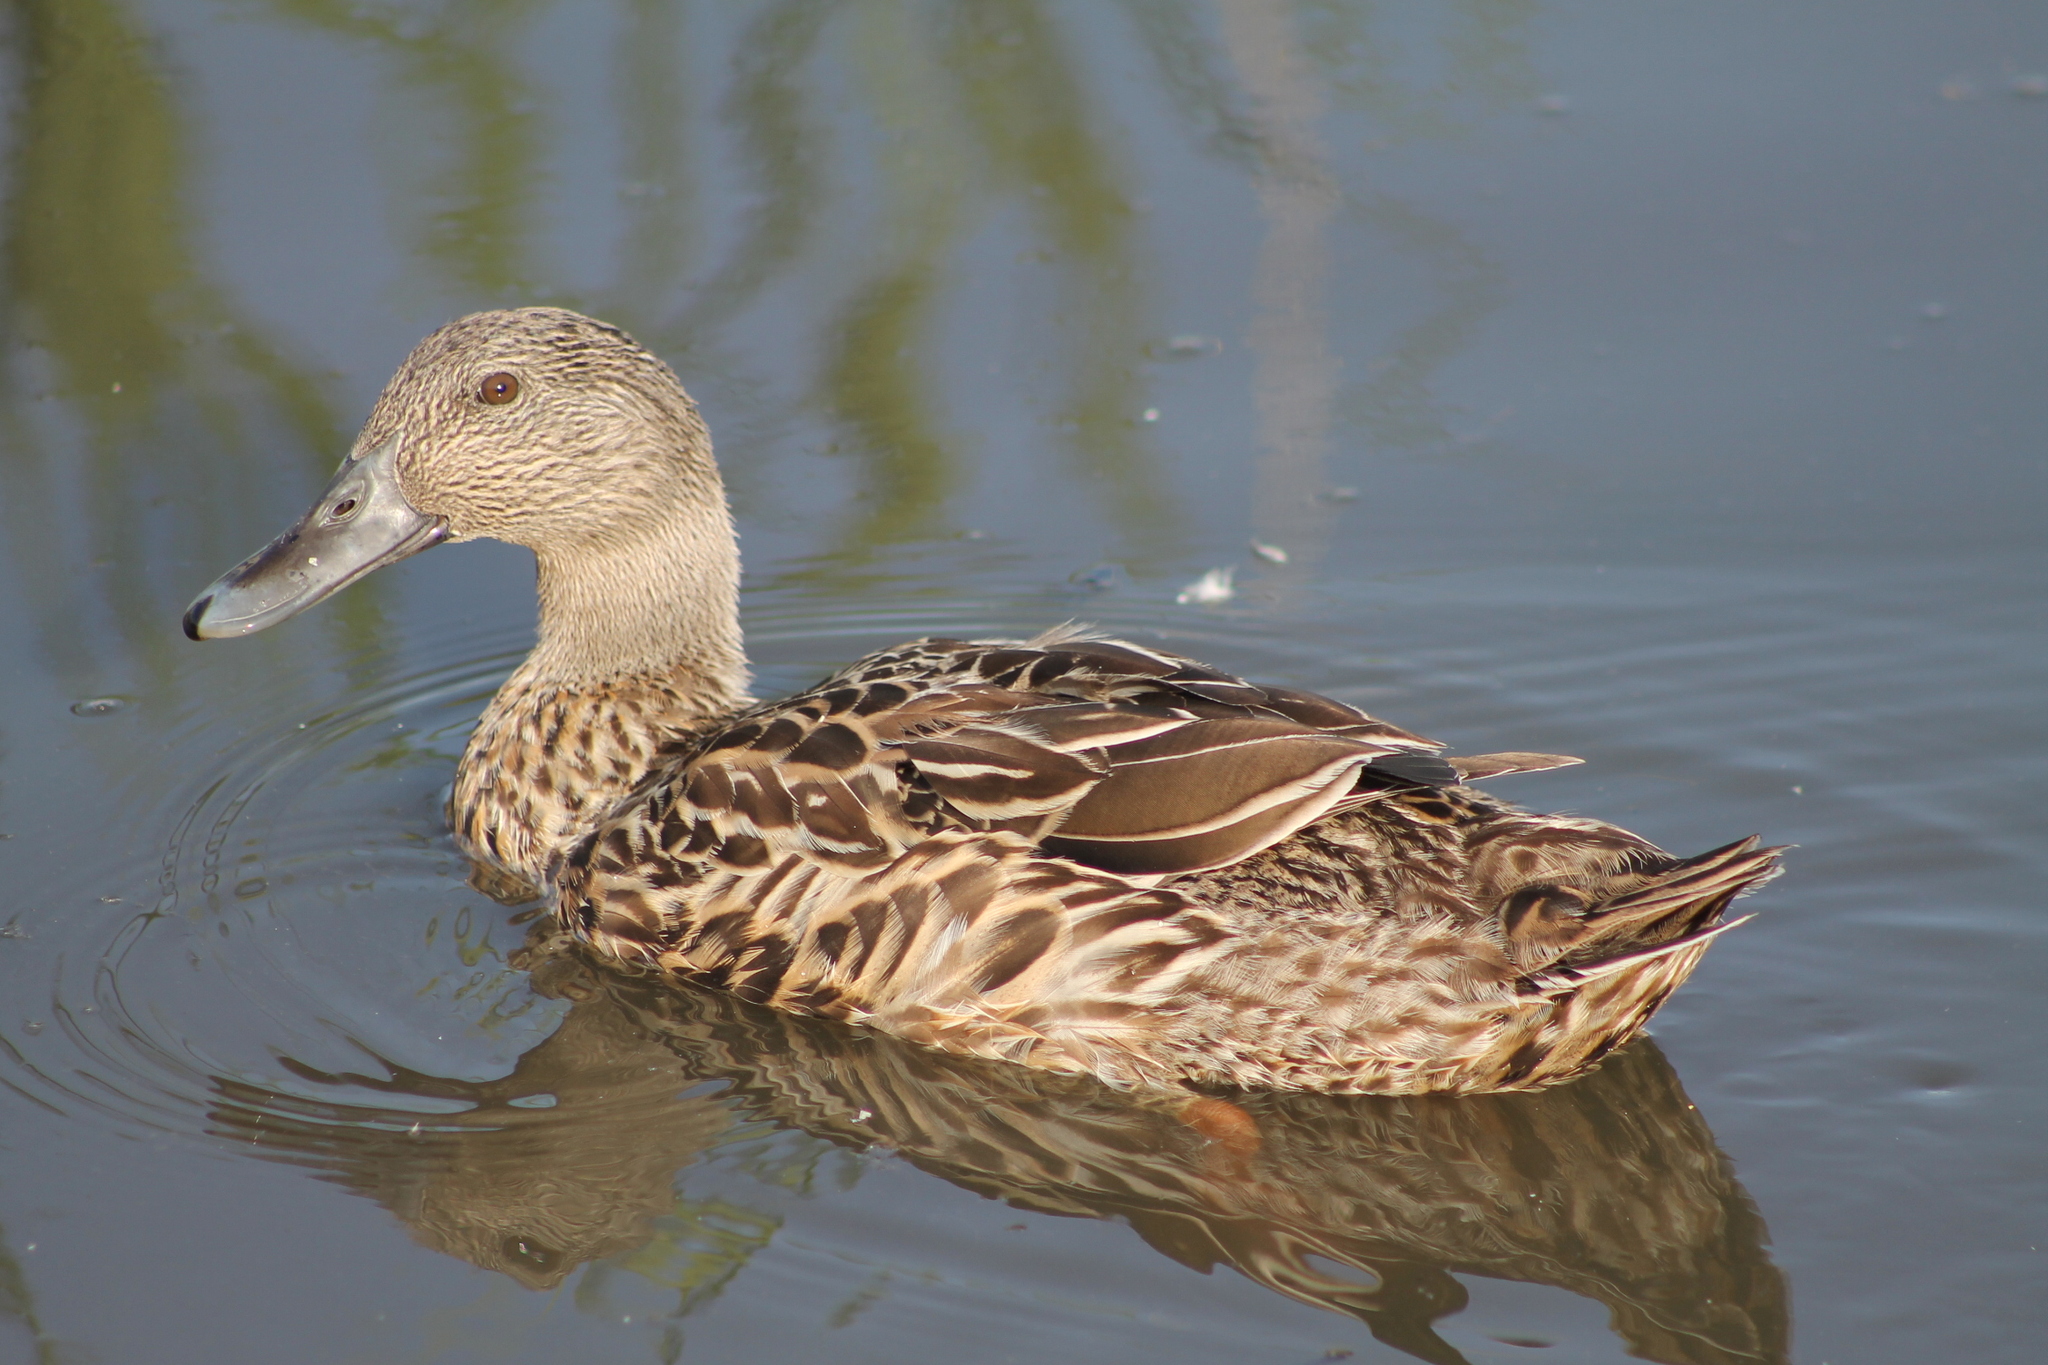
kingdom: Animalia
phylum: Chordata
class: Aves
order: Anseriformes
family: Anatidae
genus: Anas
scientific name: Anas platyrhynchos
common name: Mallard
